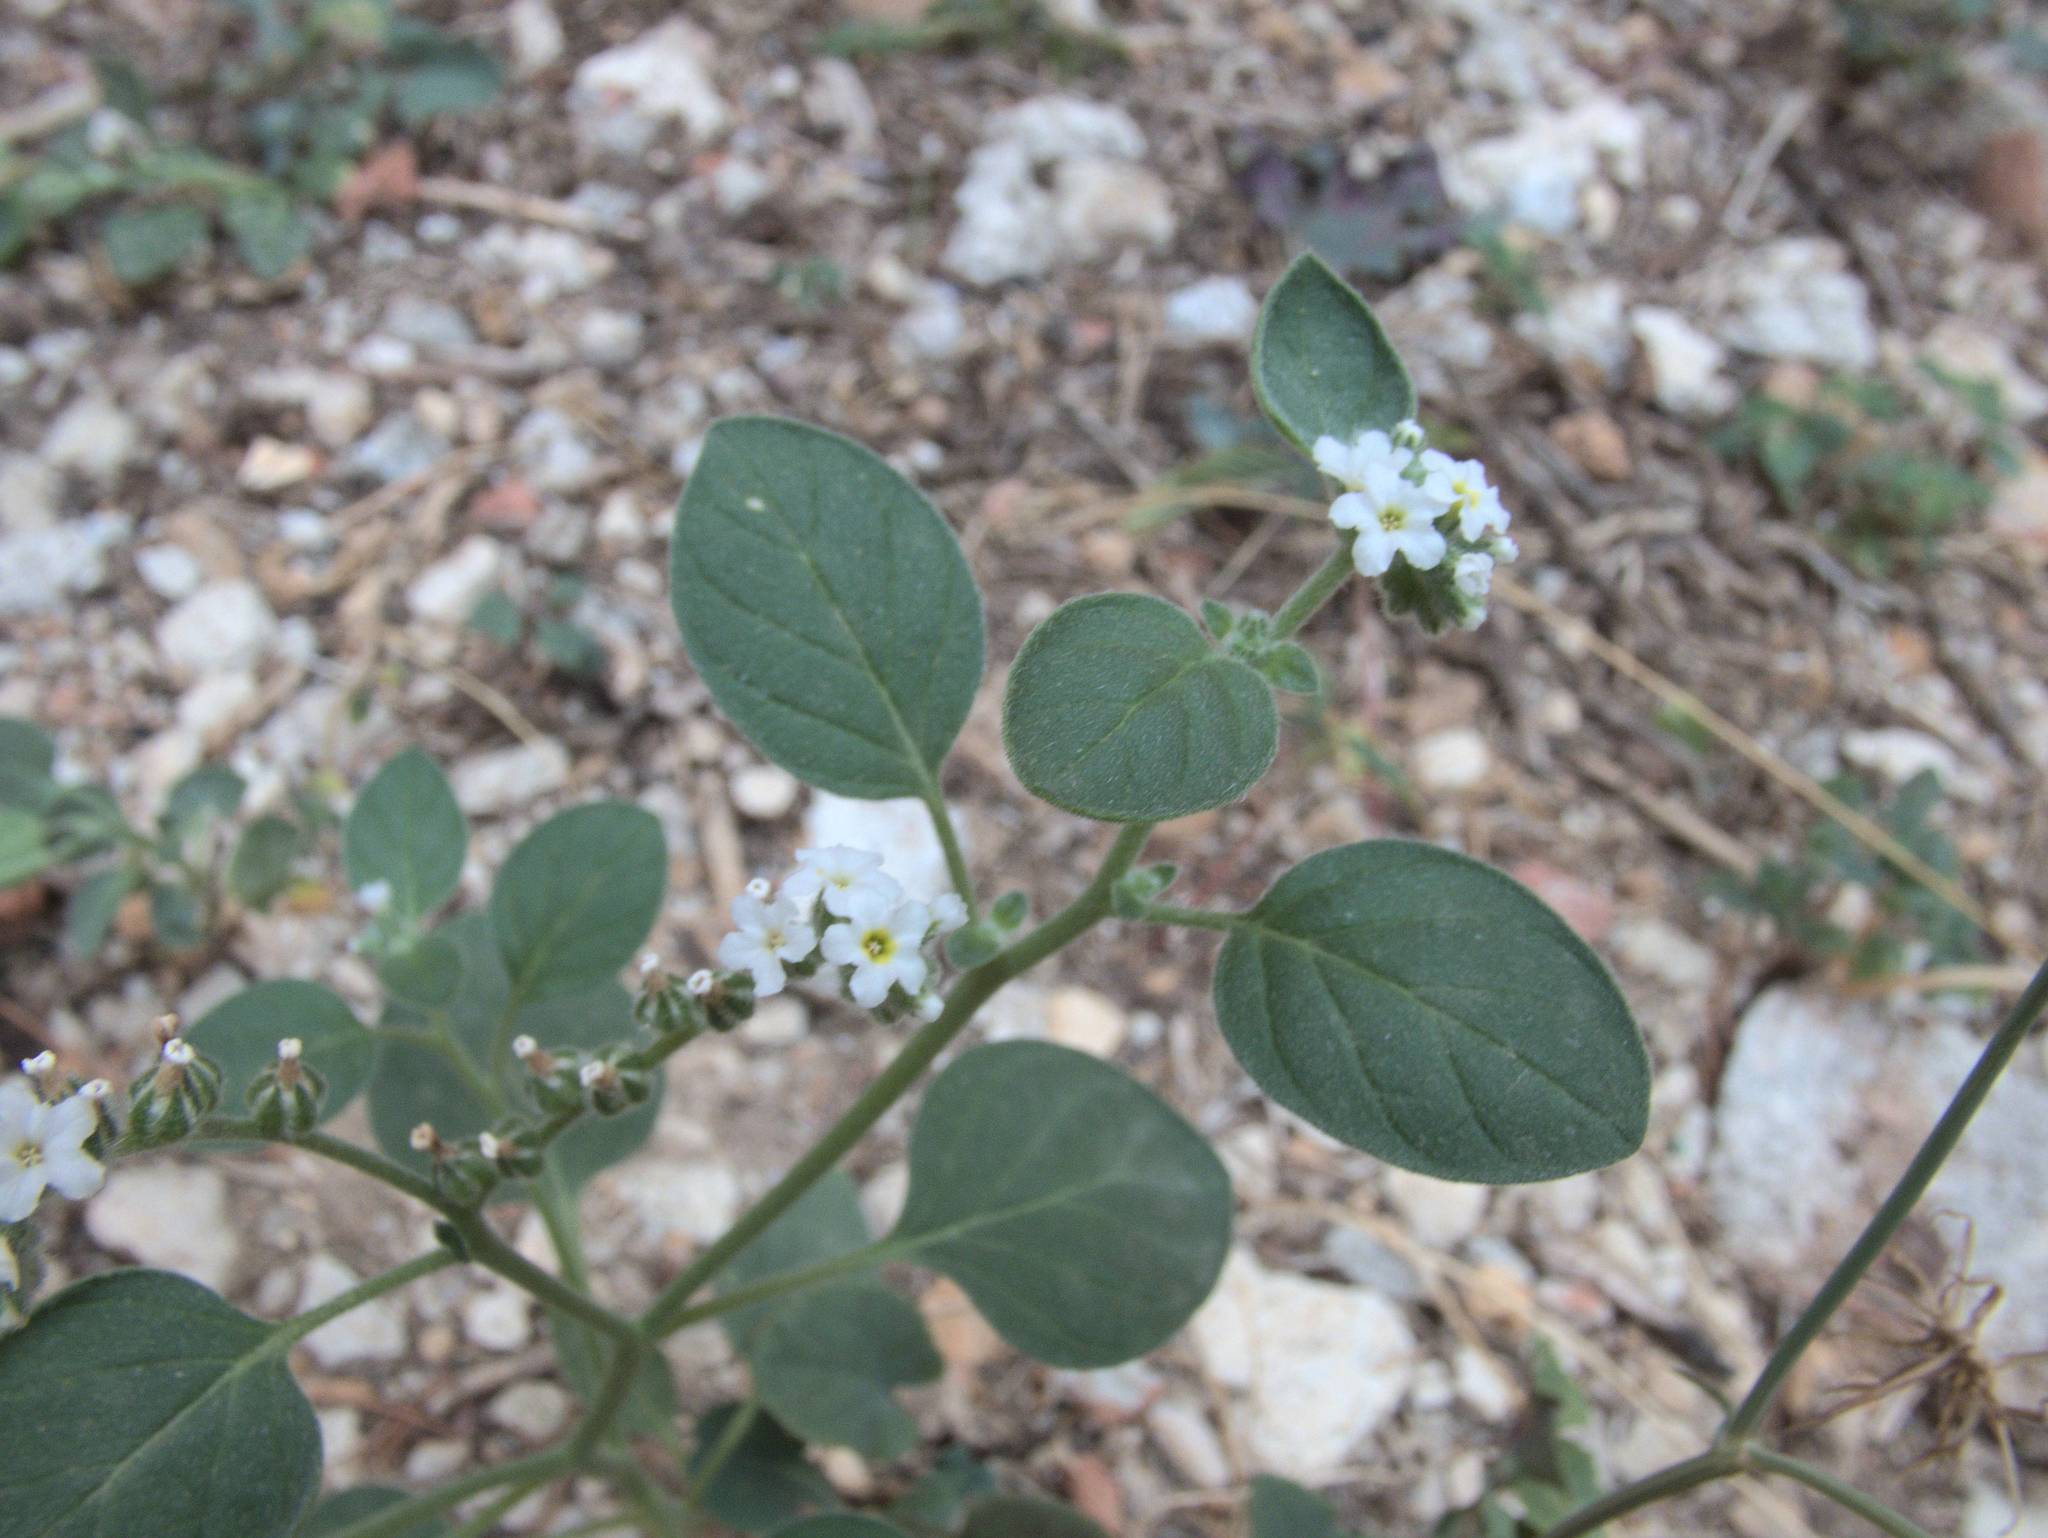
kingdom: Plantae
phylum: Tracheophyta
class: Magnoliopsida
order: Boraginales
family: Heliotropiaceae
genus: Heliotropium
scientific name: Heliotropium europaeum
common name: European heliotrope
